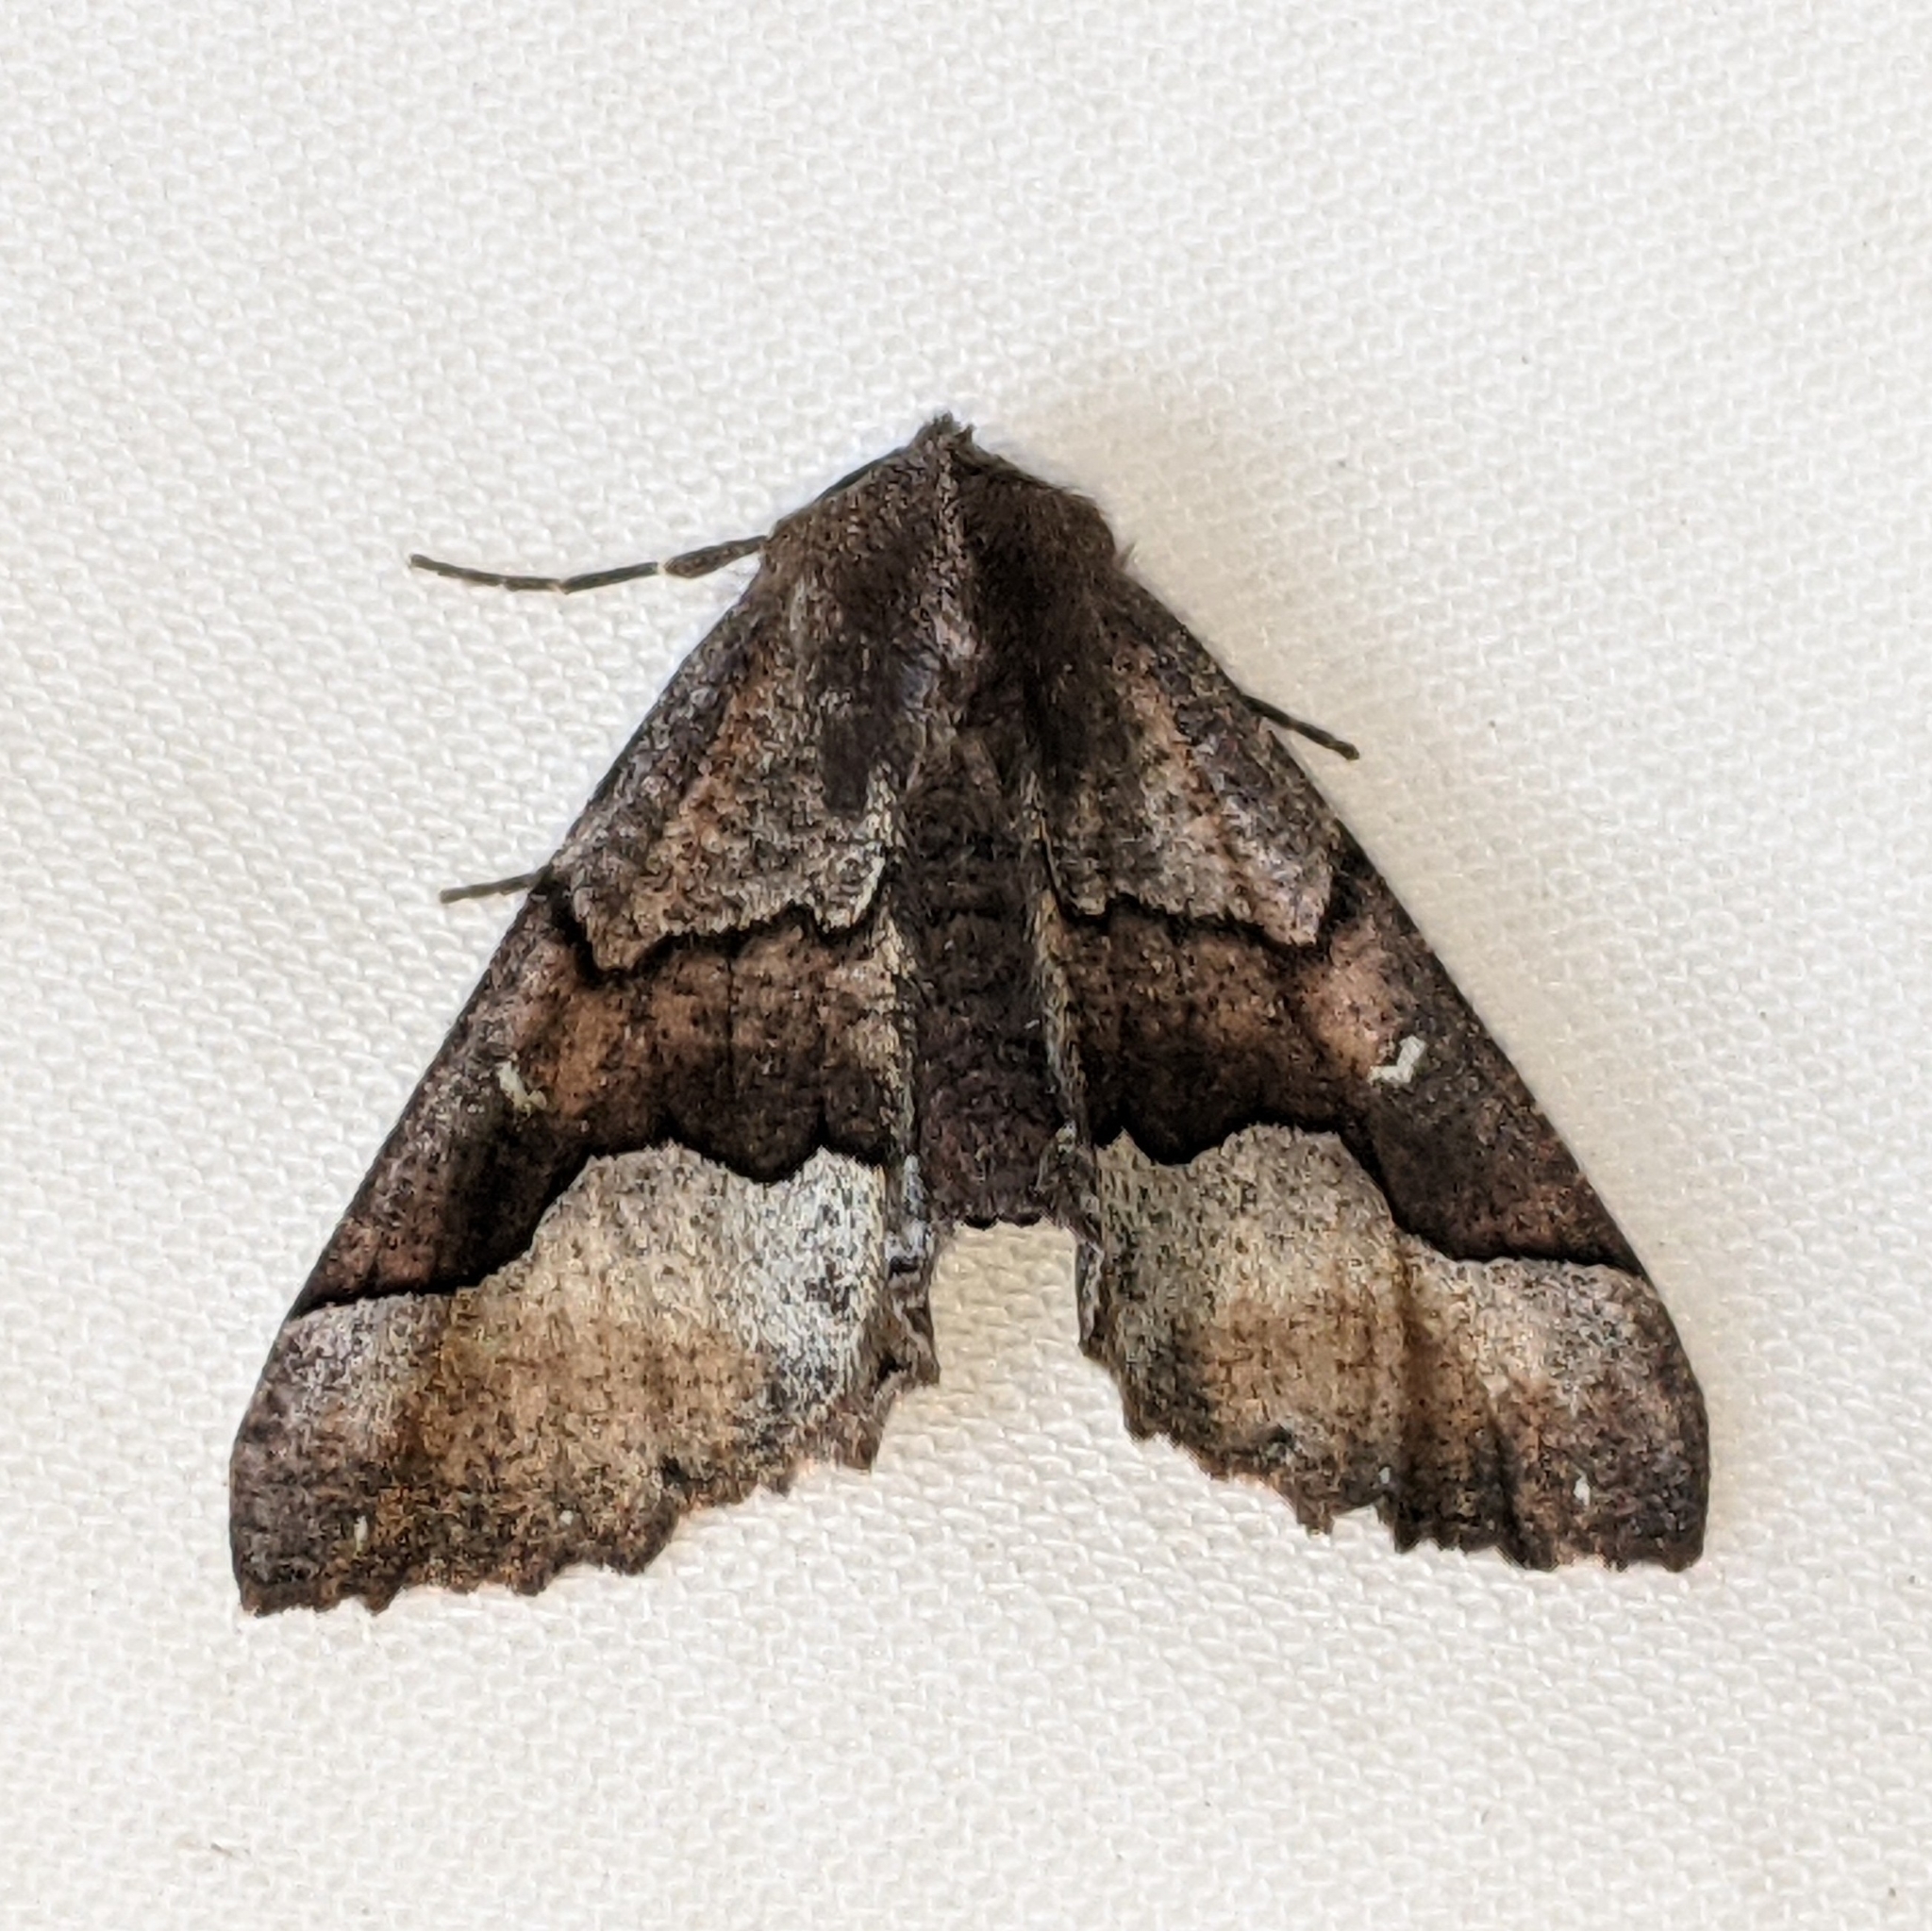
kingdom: Animalia
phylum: Arthropoda
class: Insecta
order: Lepidoptera
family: Geometridae
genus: Pero
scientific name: Pero behrensaria
